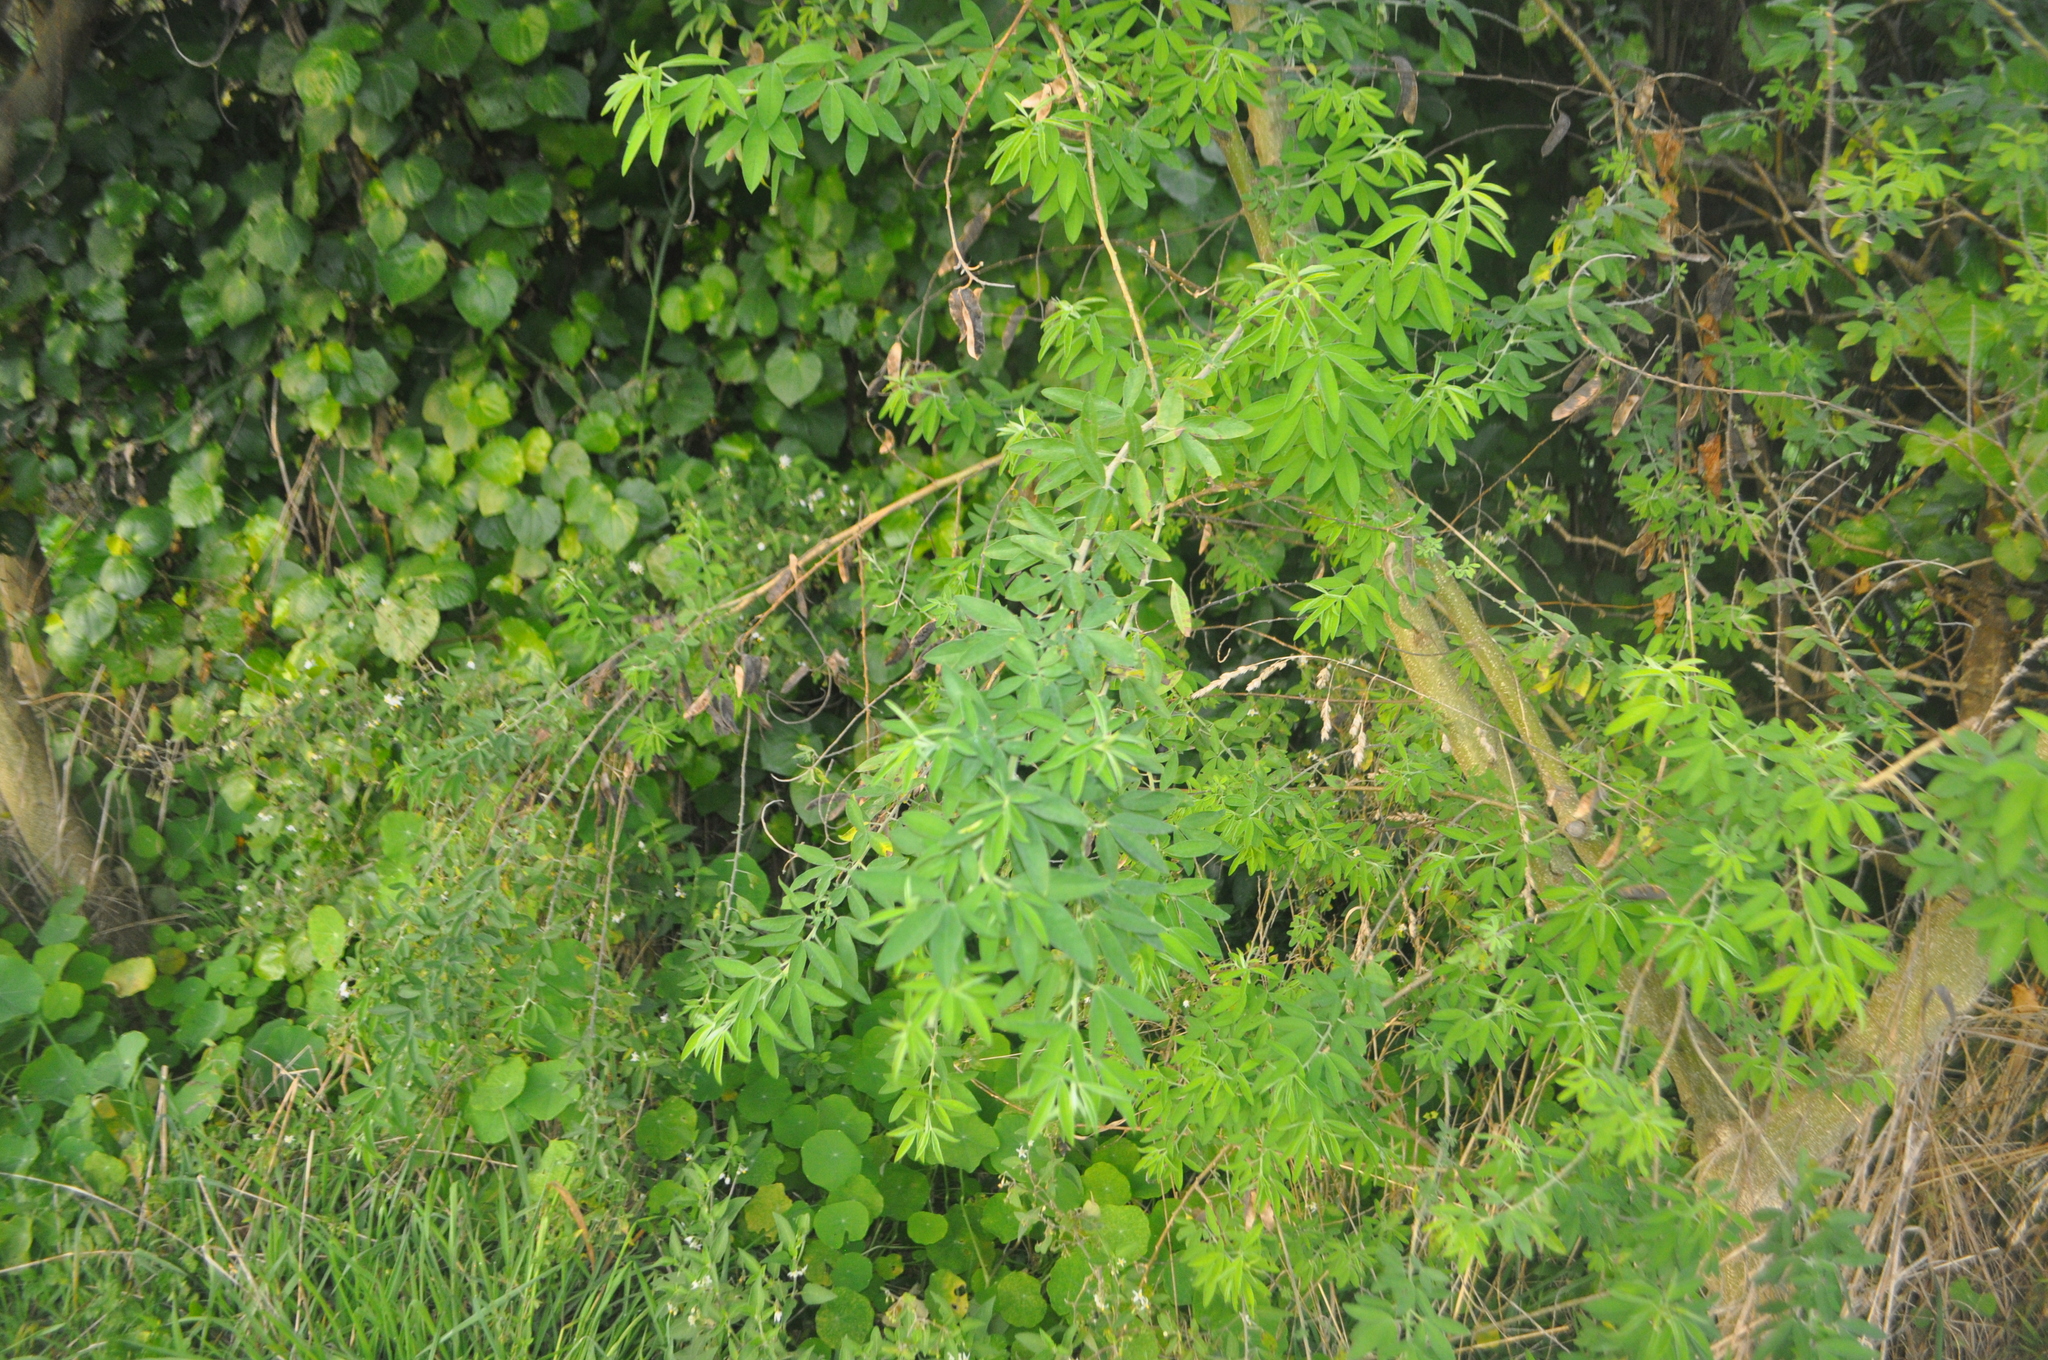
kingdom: Plantae
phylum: Tracheophyta
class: Magnoliopsida
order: Fabales
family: Fabaceae
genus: Chamaecytisus
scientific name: Chamaecytisus prolifer
